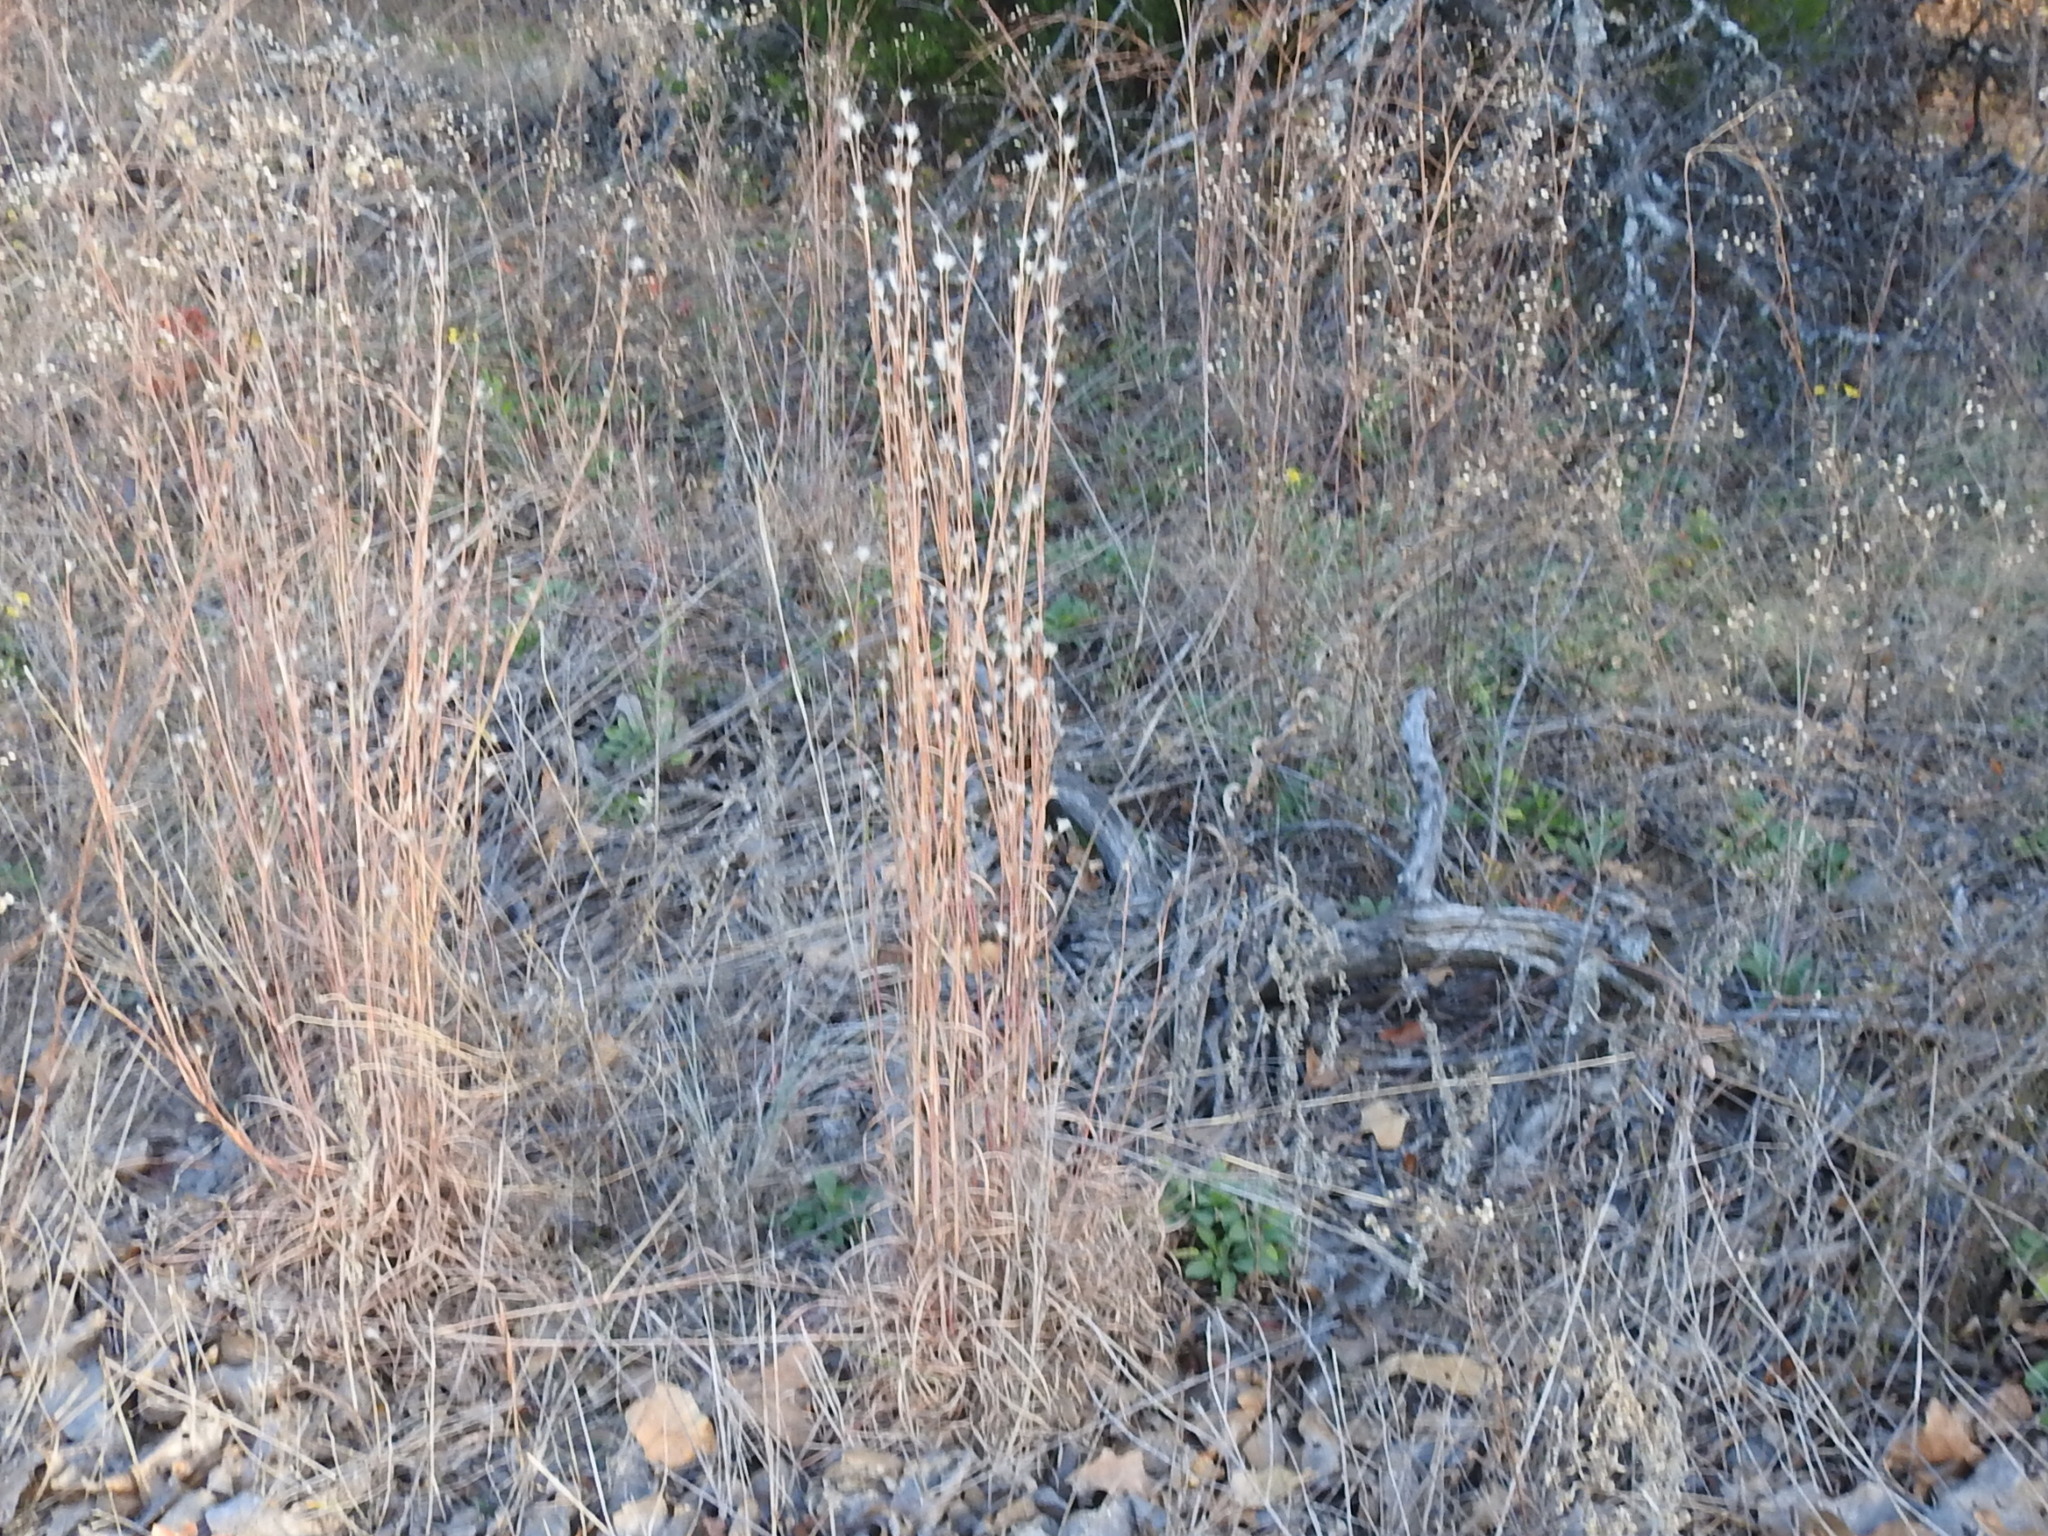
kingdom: Plantae
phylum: Tracheophyta
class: Liliopsida
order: Poales
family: Poaceae
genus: Andropogon
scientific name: Andropogon ternarius
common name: Split bluestem
